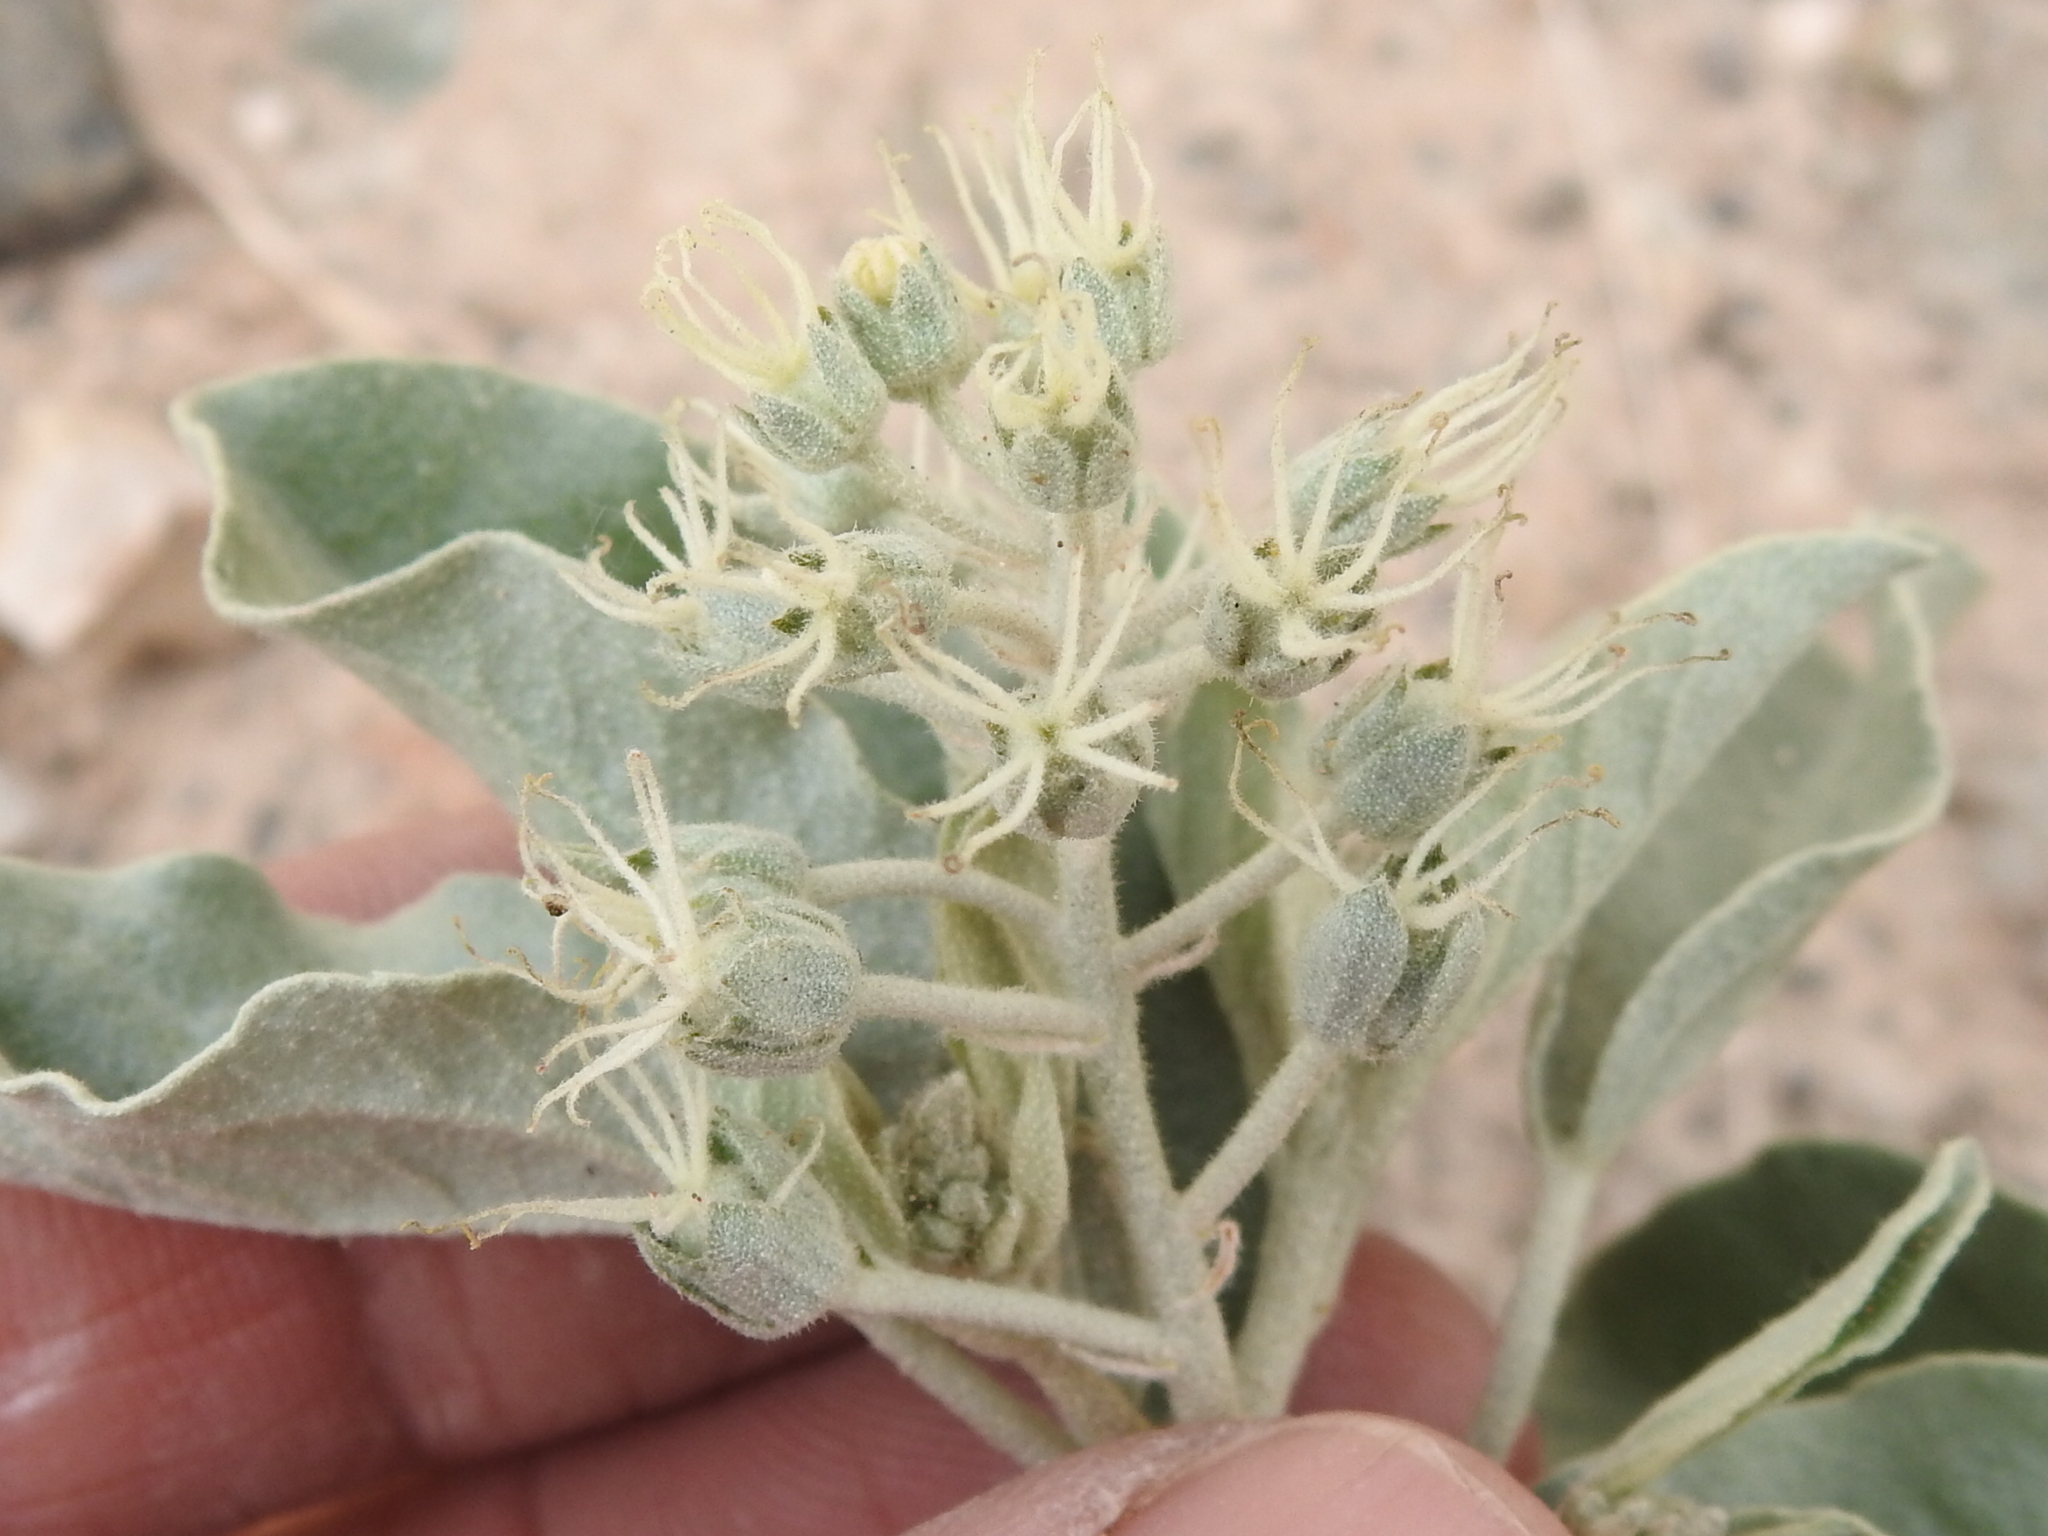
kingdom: Plantae
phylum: Tracheophyta
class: Magnoliopsida
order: Malpighiales
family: Euphorbiaceae
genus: Croton
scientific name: Croton pottsii
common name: Leatherweed
